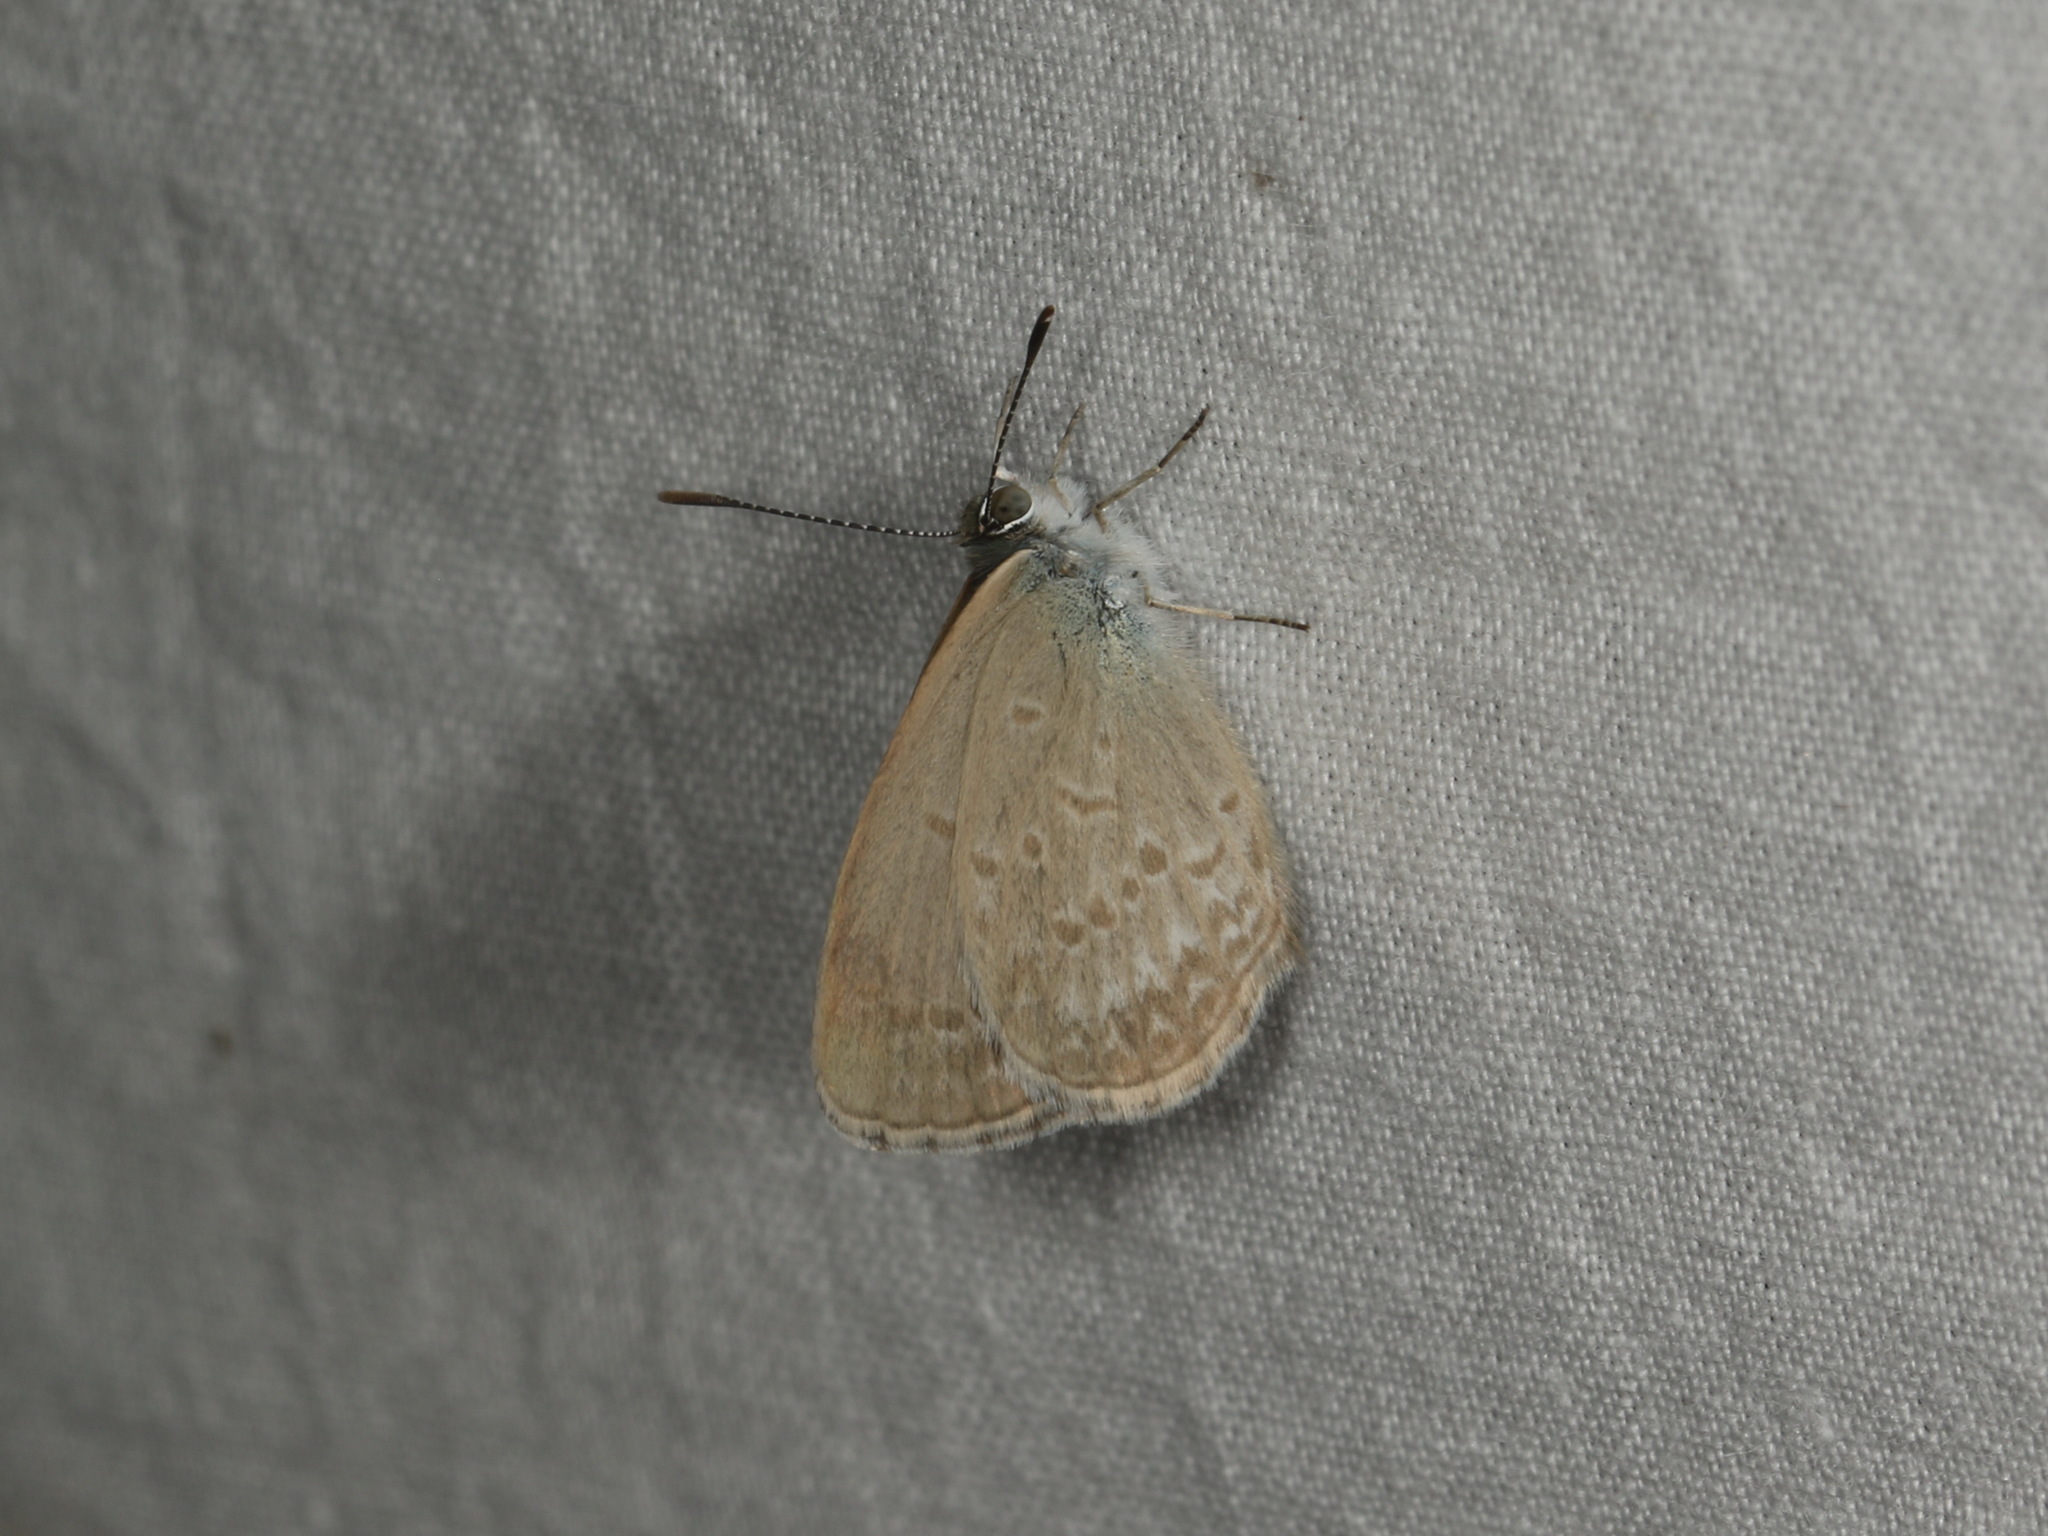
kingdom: Animalia
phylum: Arthropoda
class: Insecta
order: Lepidoptera
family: Lycaenidae
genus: Zizina
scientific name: Zizina labradus
